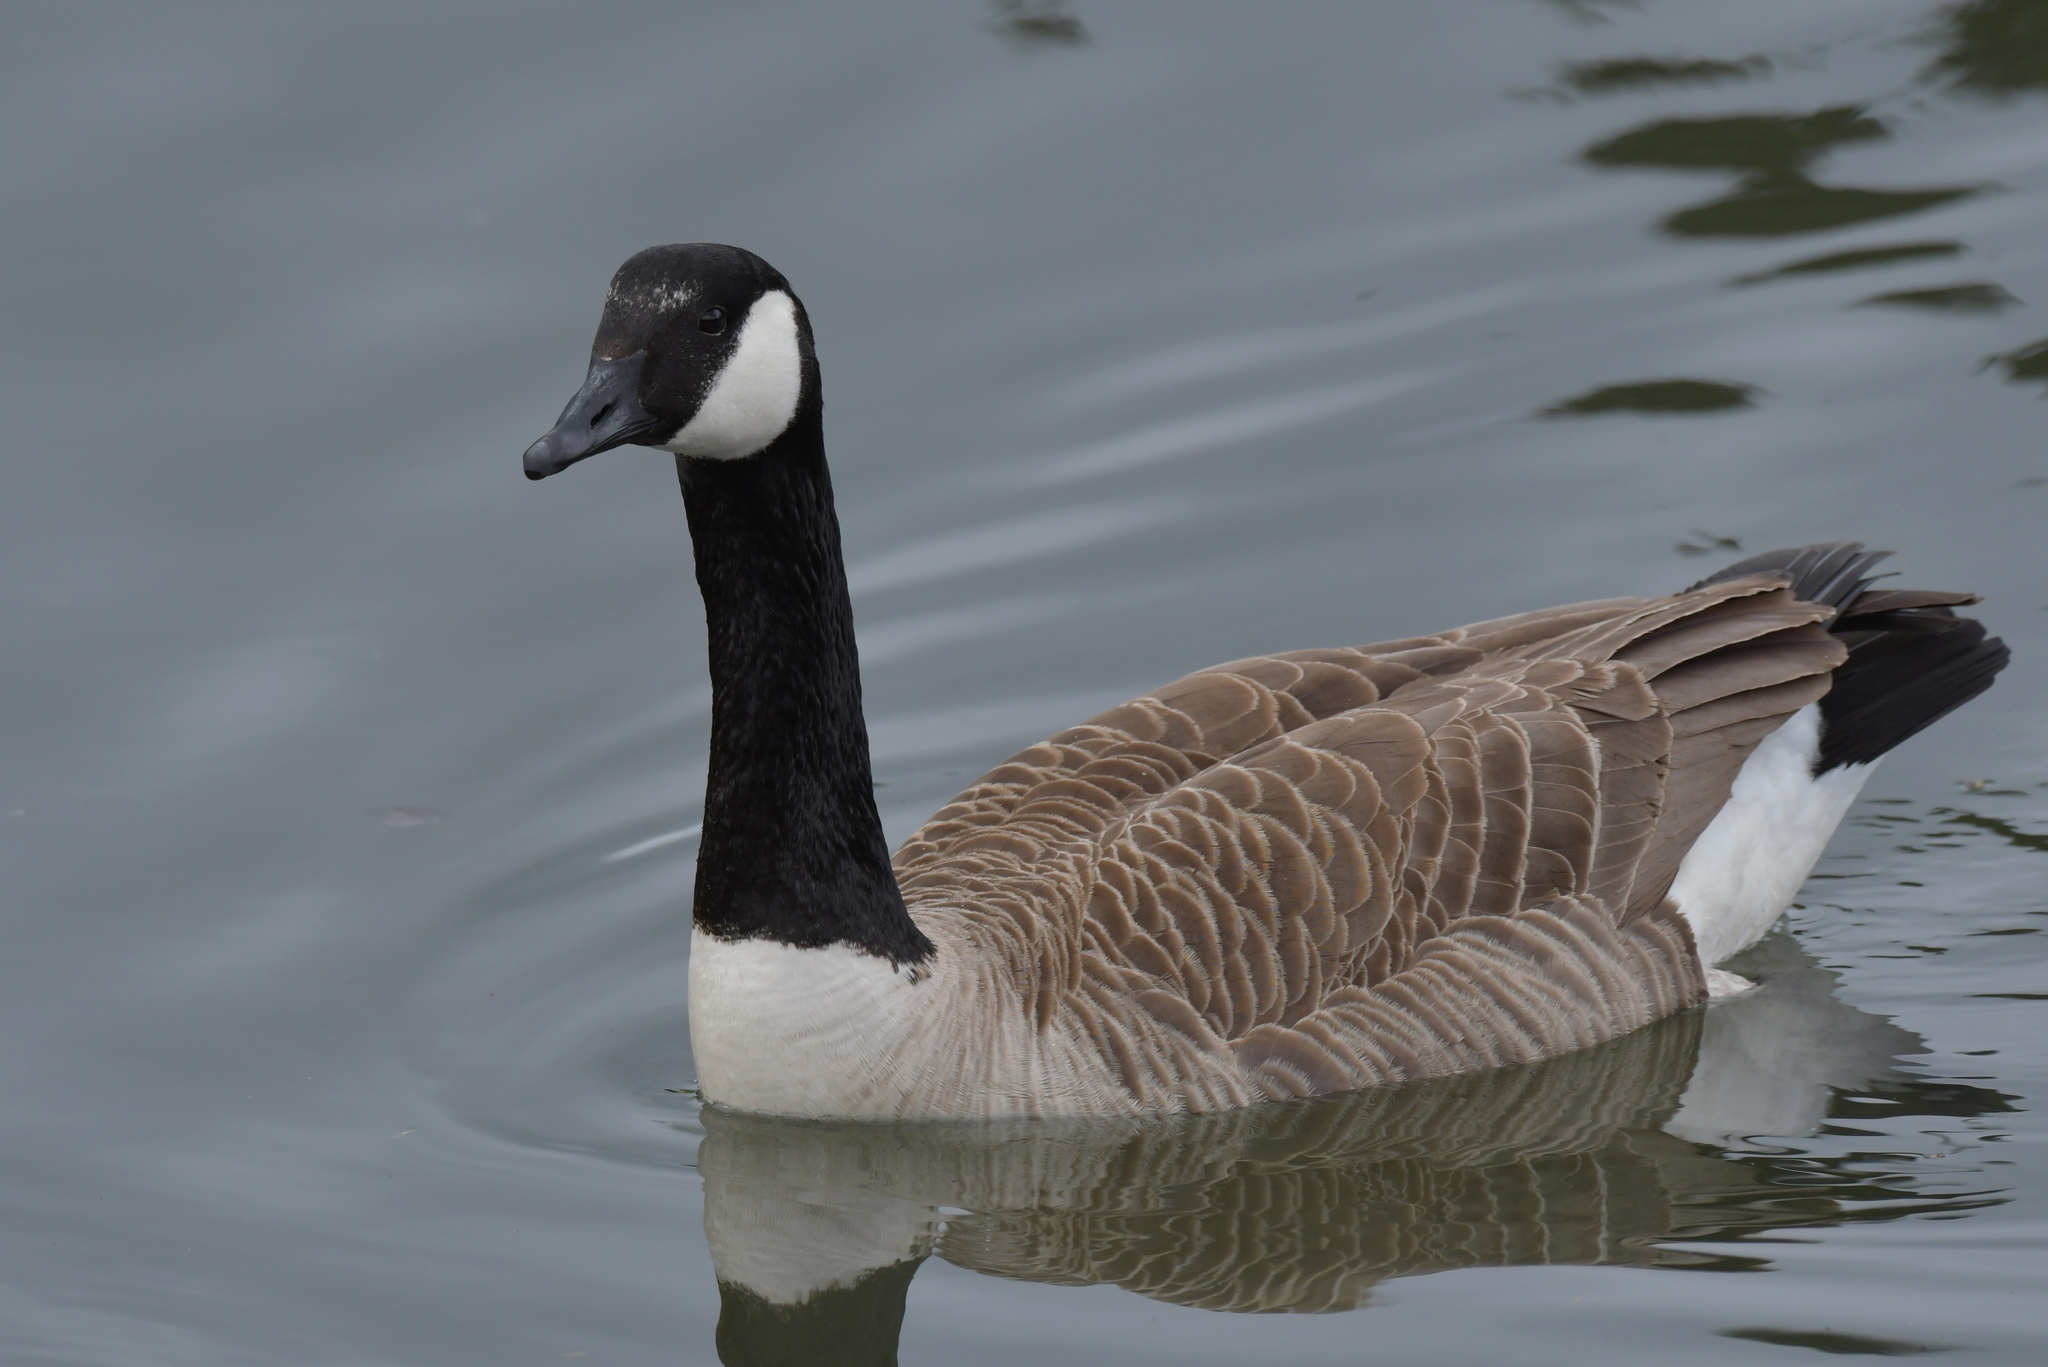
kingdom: Animalia
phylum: Chordata
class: Aves
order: Anseriformes
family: Anatidae
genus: Branta
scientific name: Branta canadensis
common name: Canada goose
